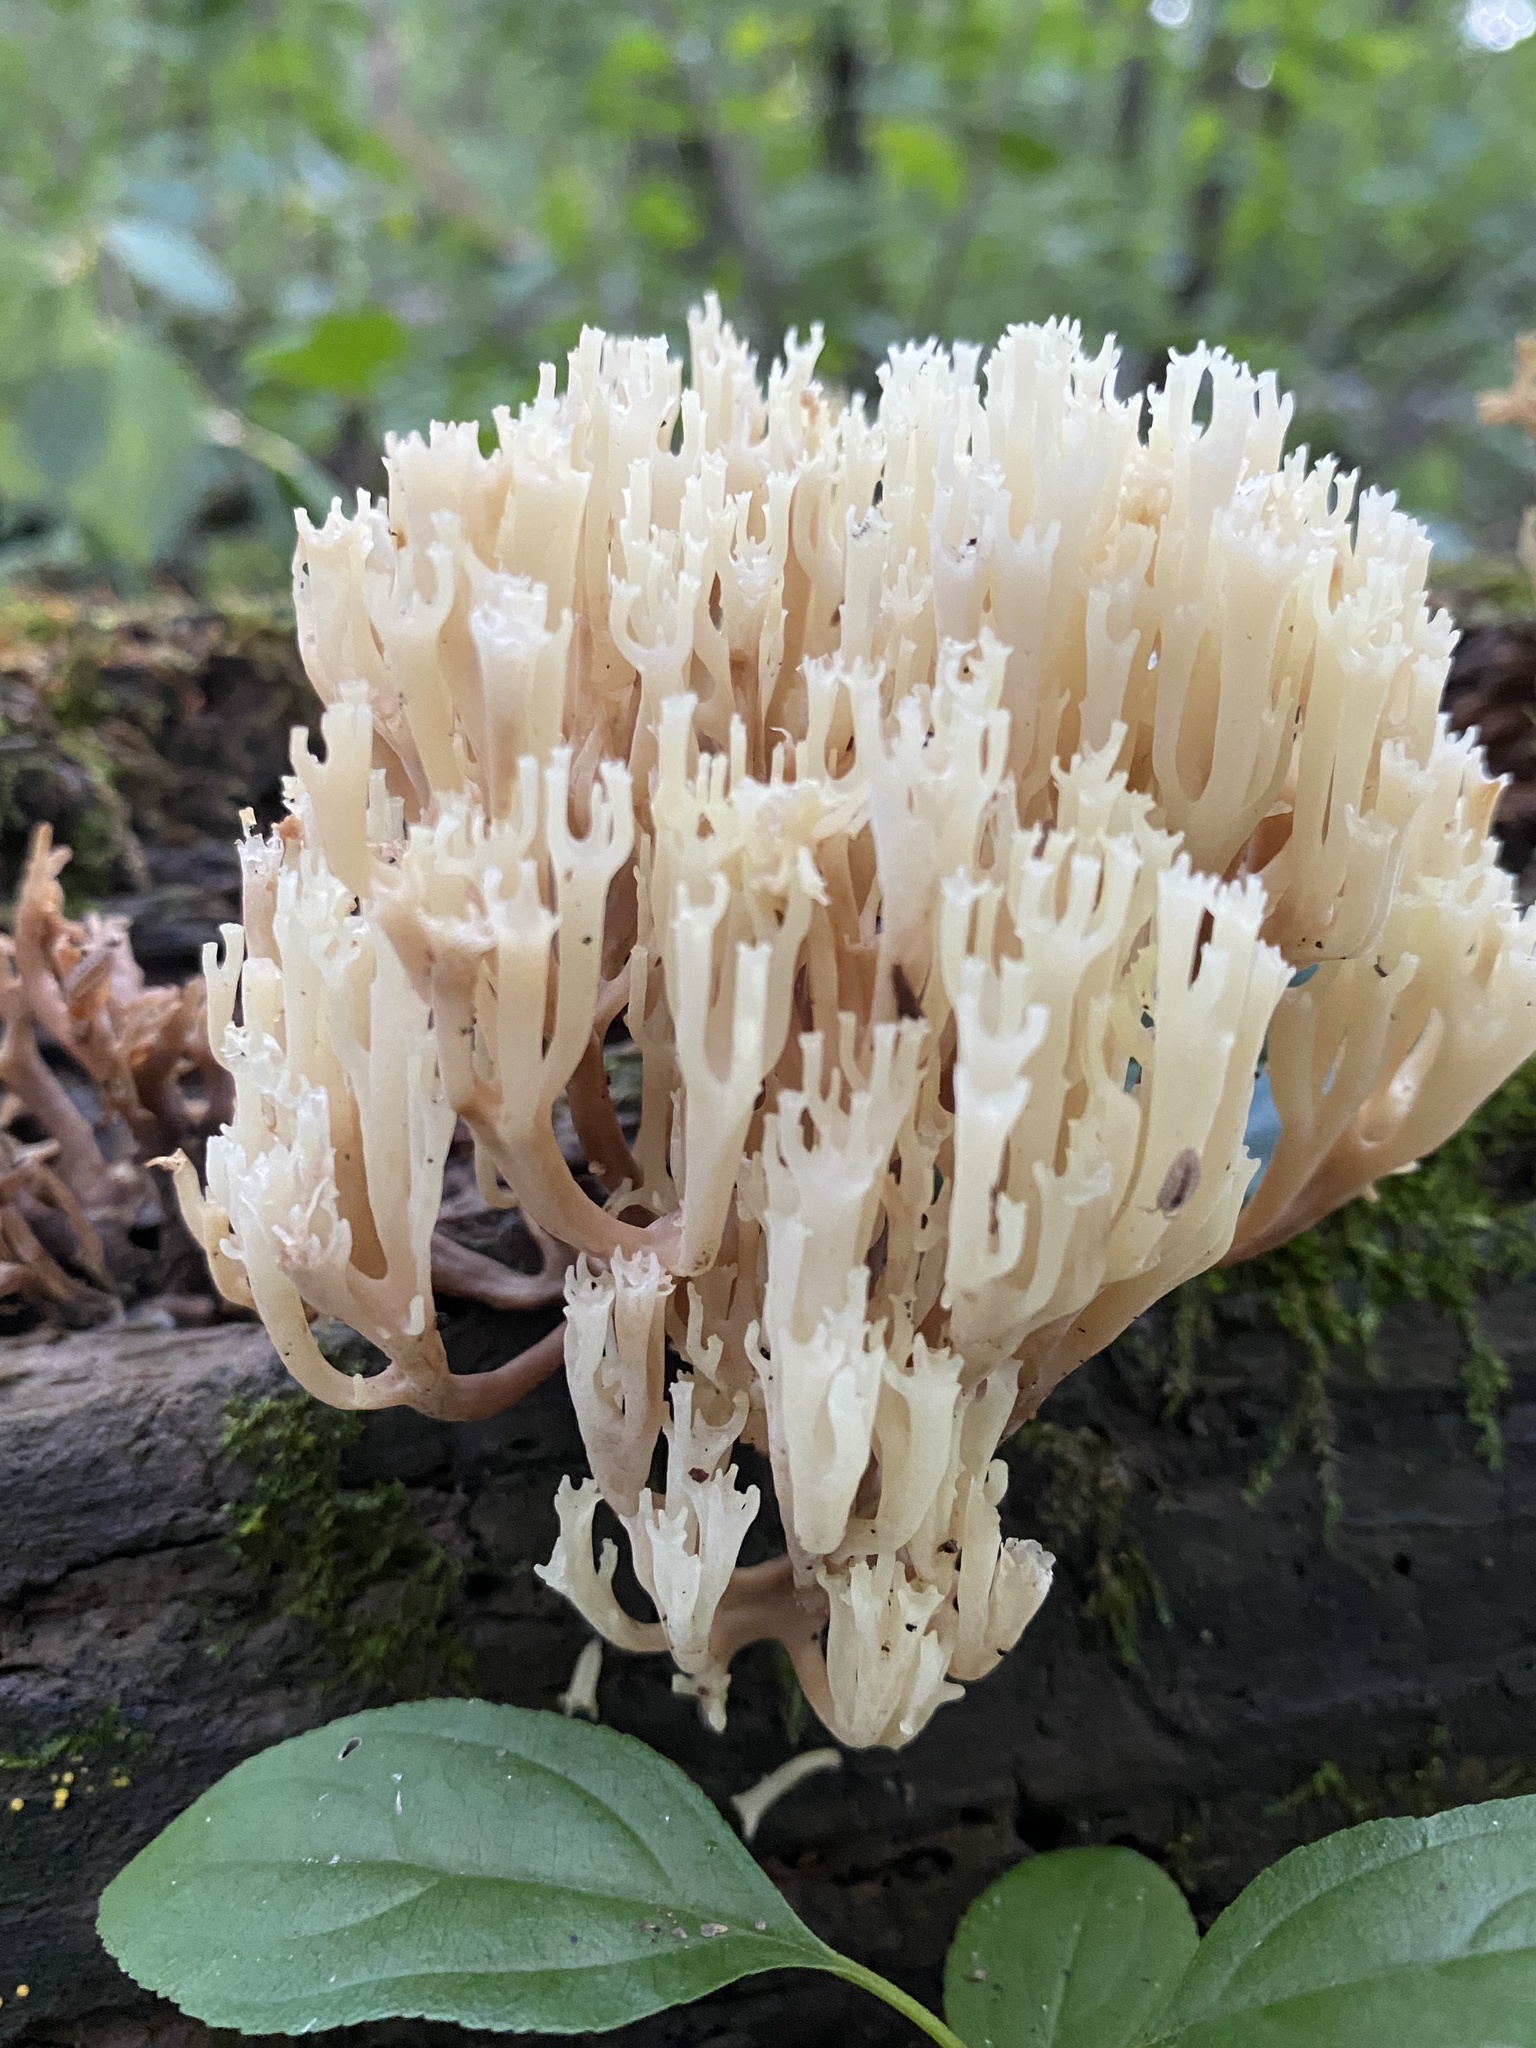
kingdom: Fungi
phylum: Basidiomycota
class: Agaricomycetes
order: Russulales
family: Auriscalpiaceae
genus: Artomyces
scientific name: Artomyces pyxidatus
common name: Crown-tipped coral fungus
